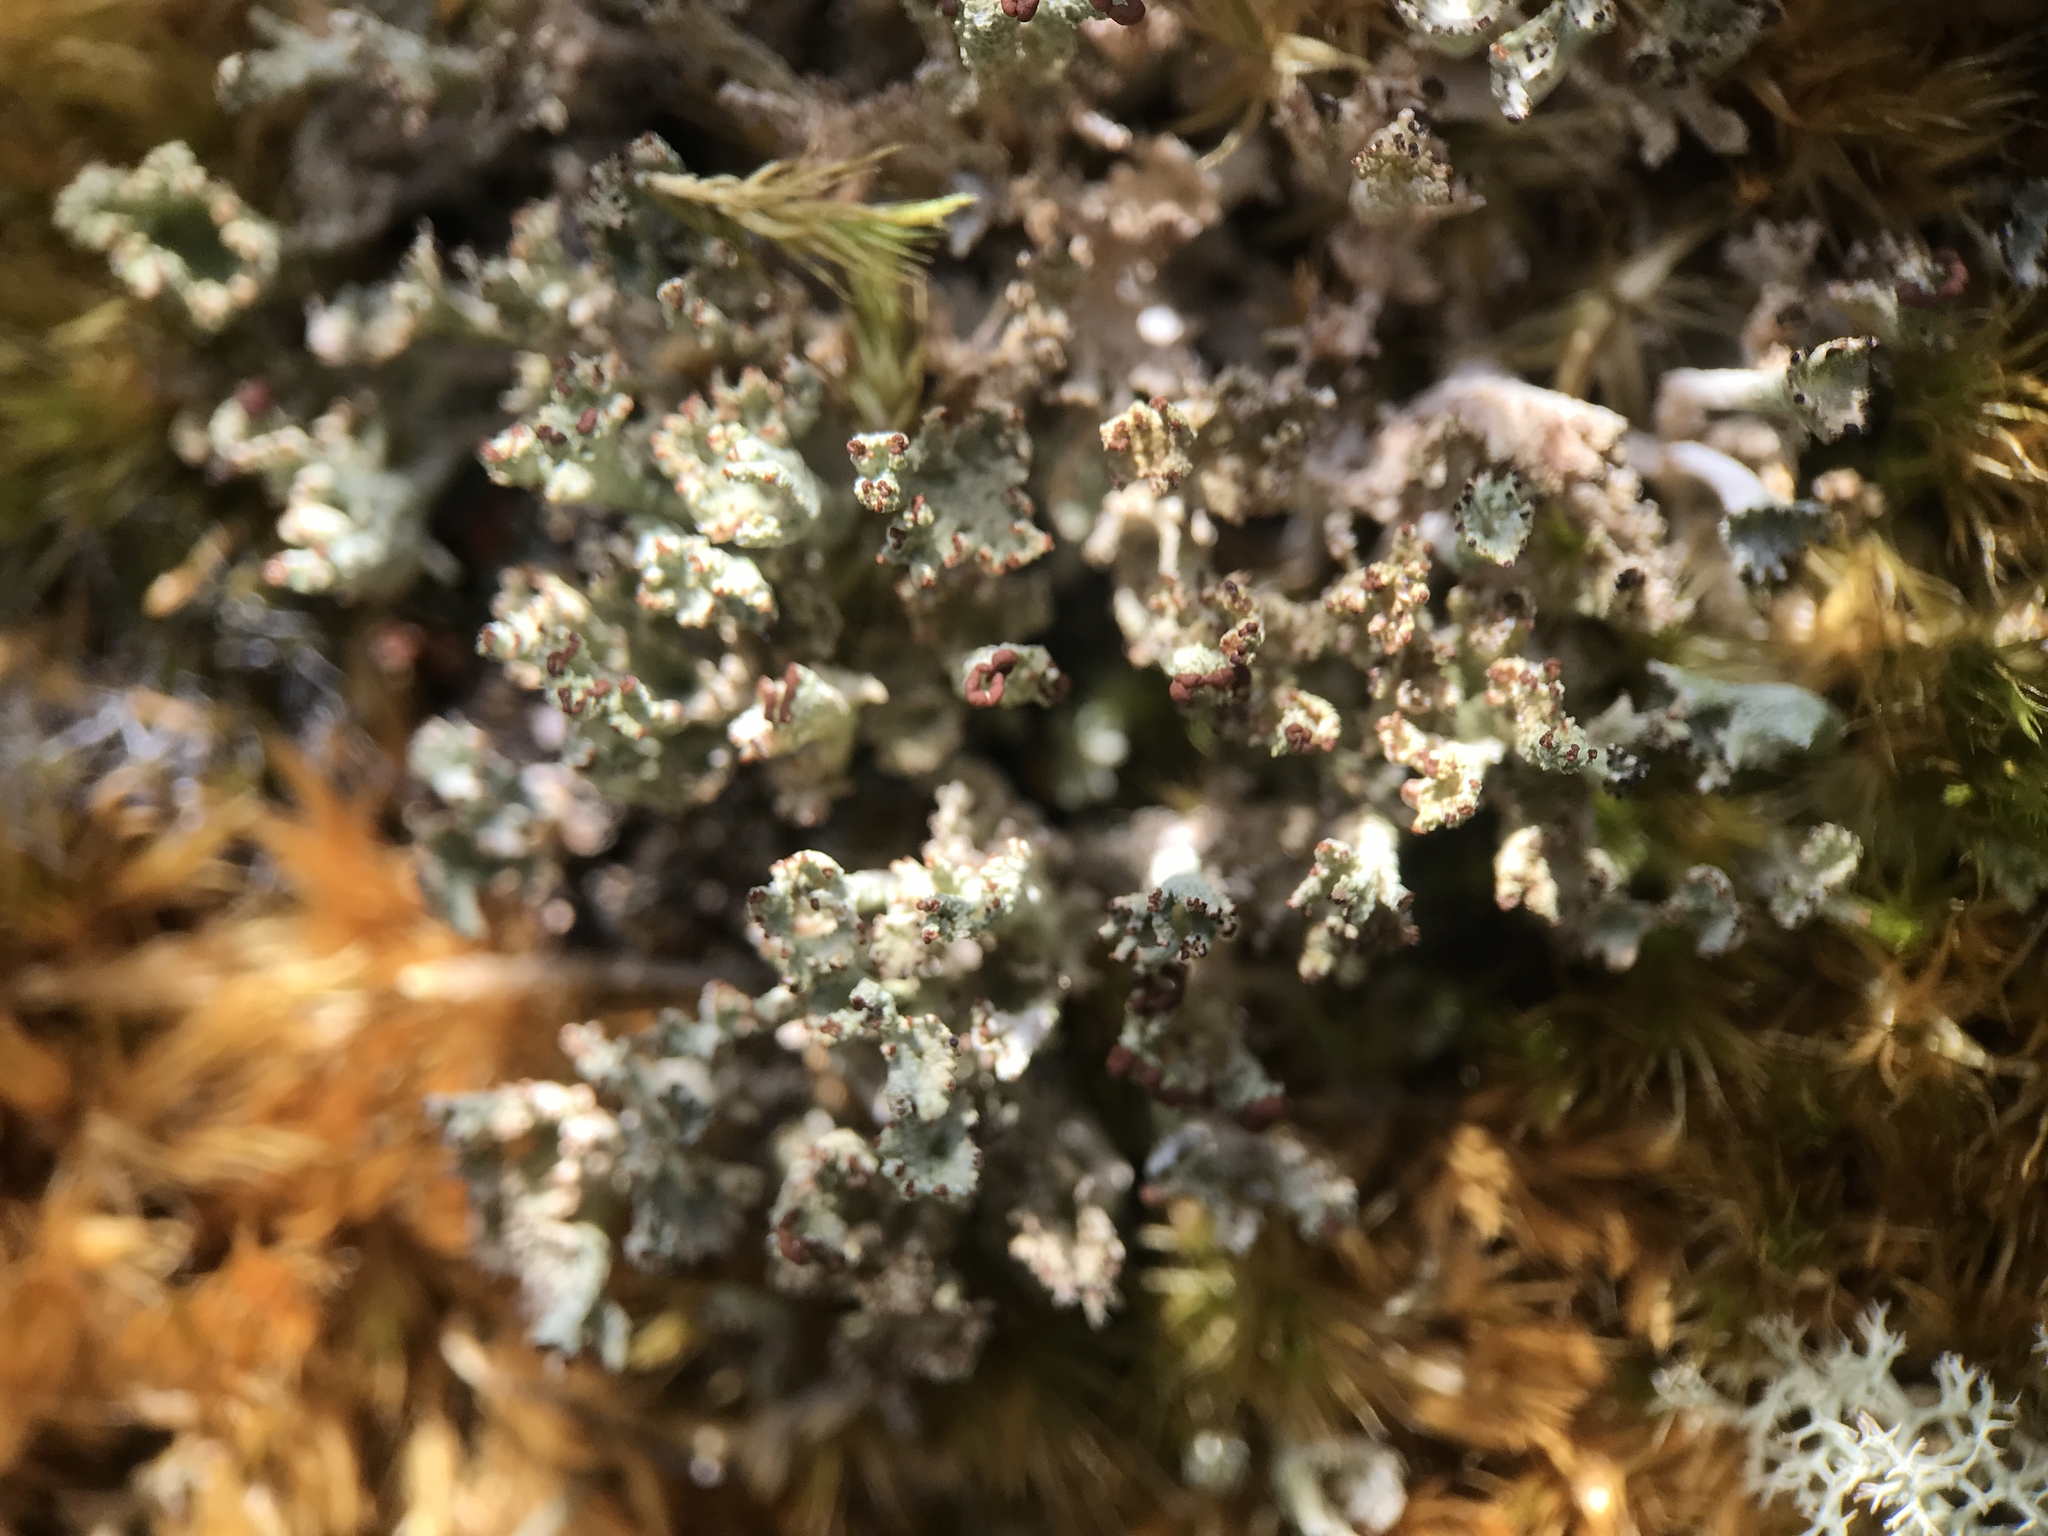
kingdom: Fungi
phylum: Ascomycota
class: Lecanoromycetes
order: Lecanorales
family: Cladoniaceae
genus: Cladonia
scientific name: Cladonia ramulosa
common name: Branched pixie-cup lichen
